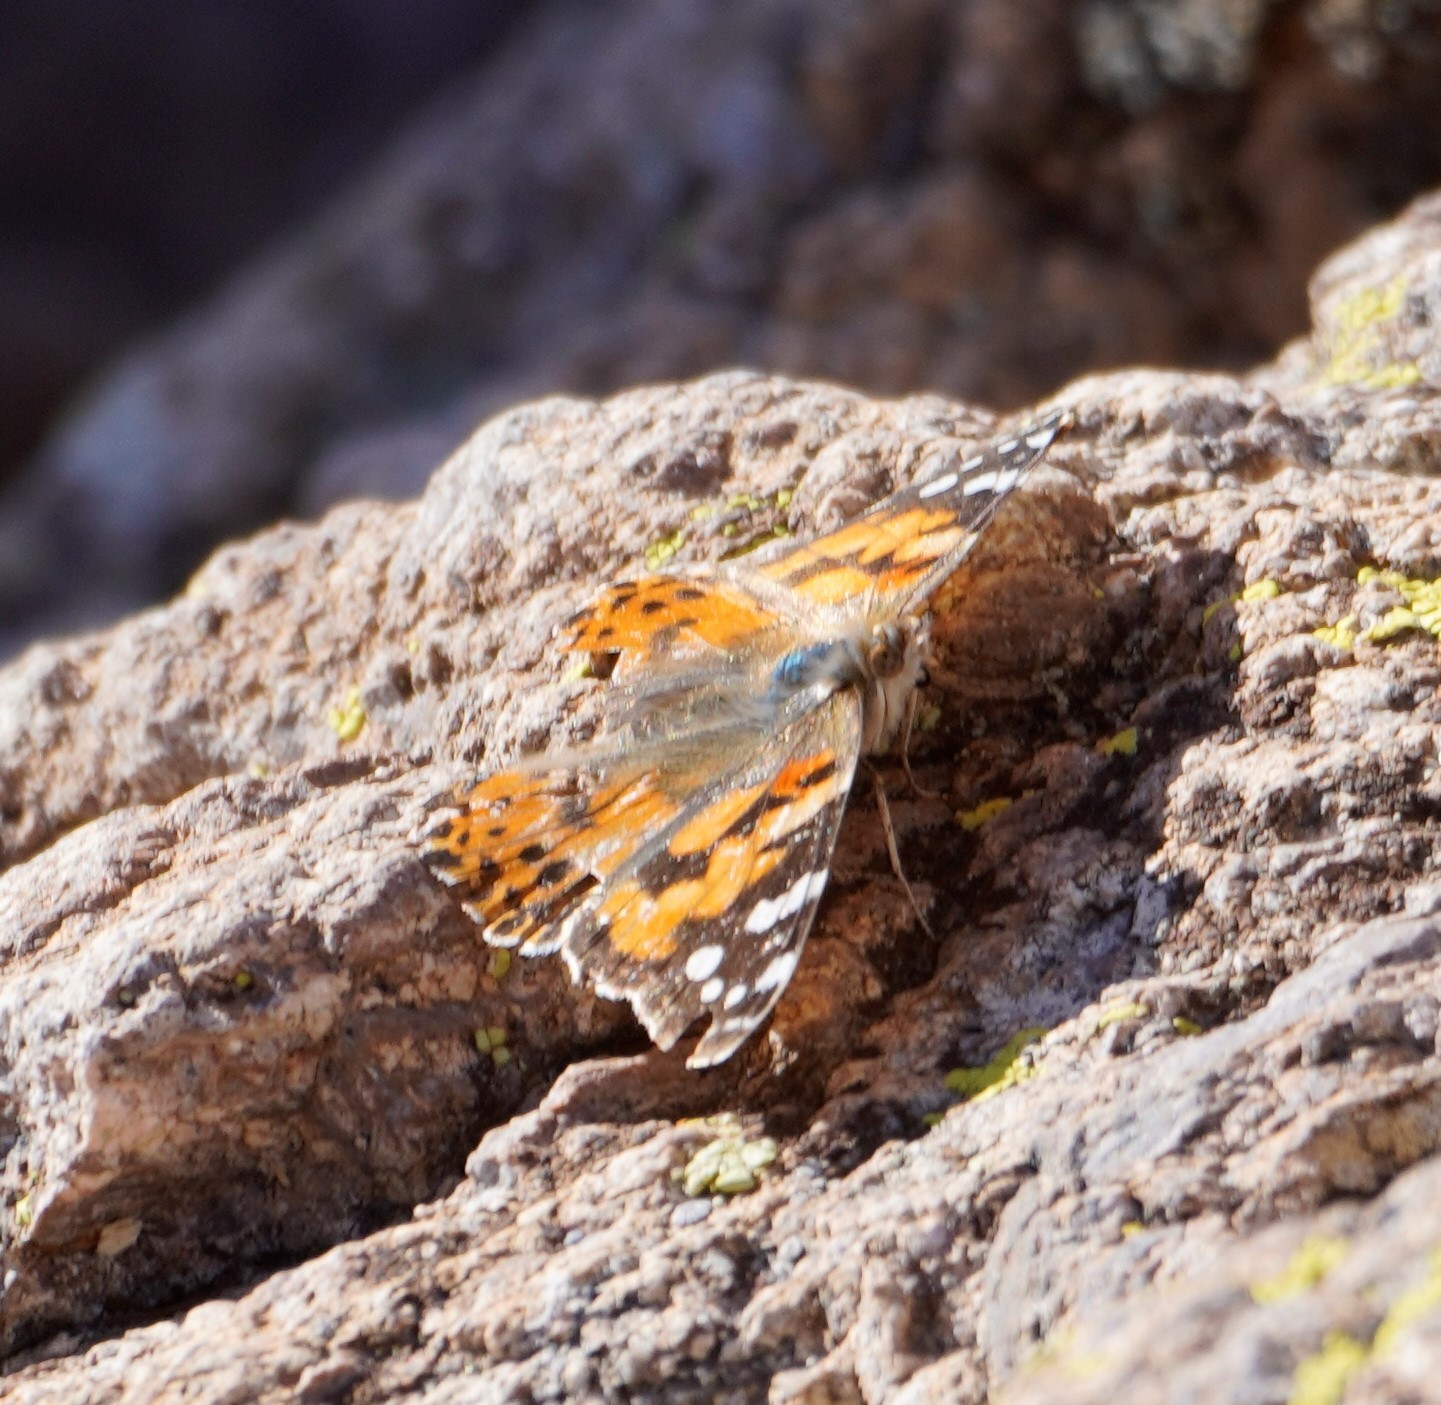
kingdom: Animalia
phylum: Arthropoda
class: Insecta
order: Lepidoptera
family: Nymphalidae
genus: Vanessa
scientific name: Vanessa cardui
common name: Painted lady
